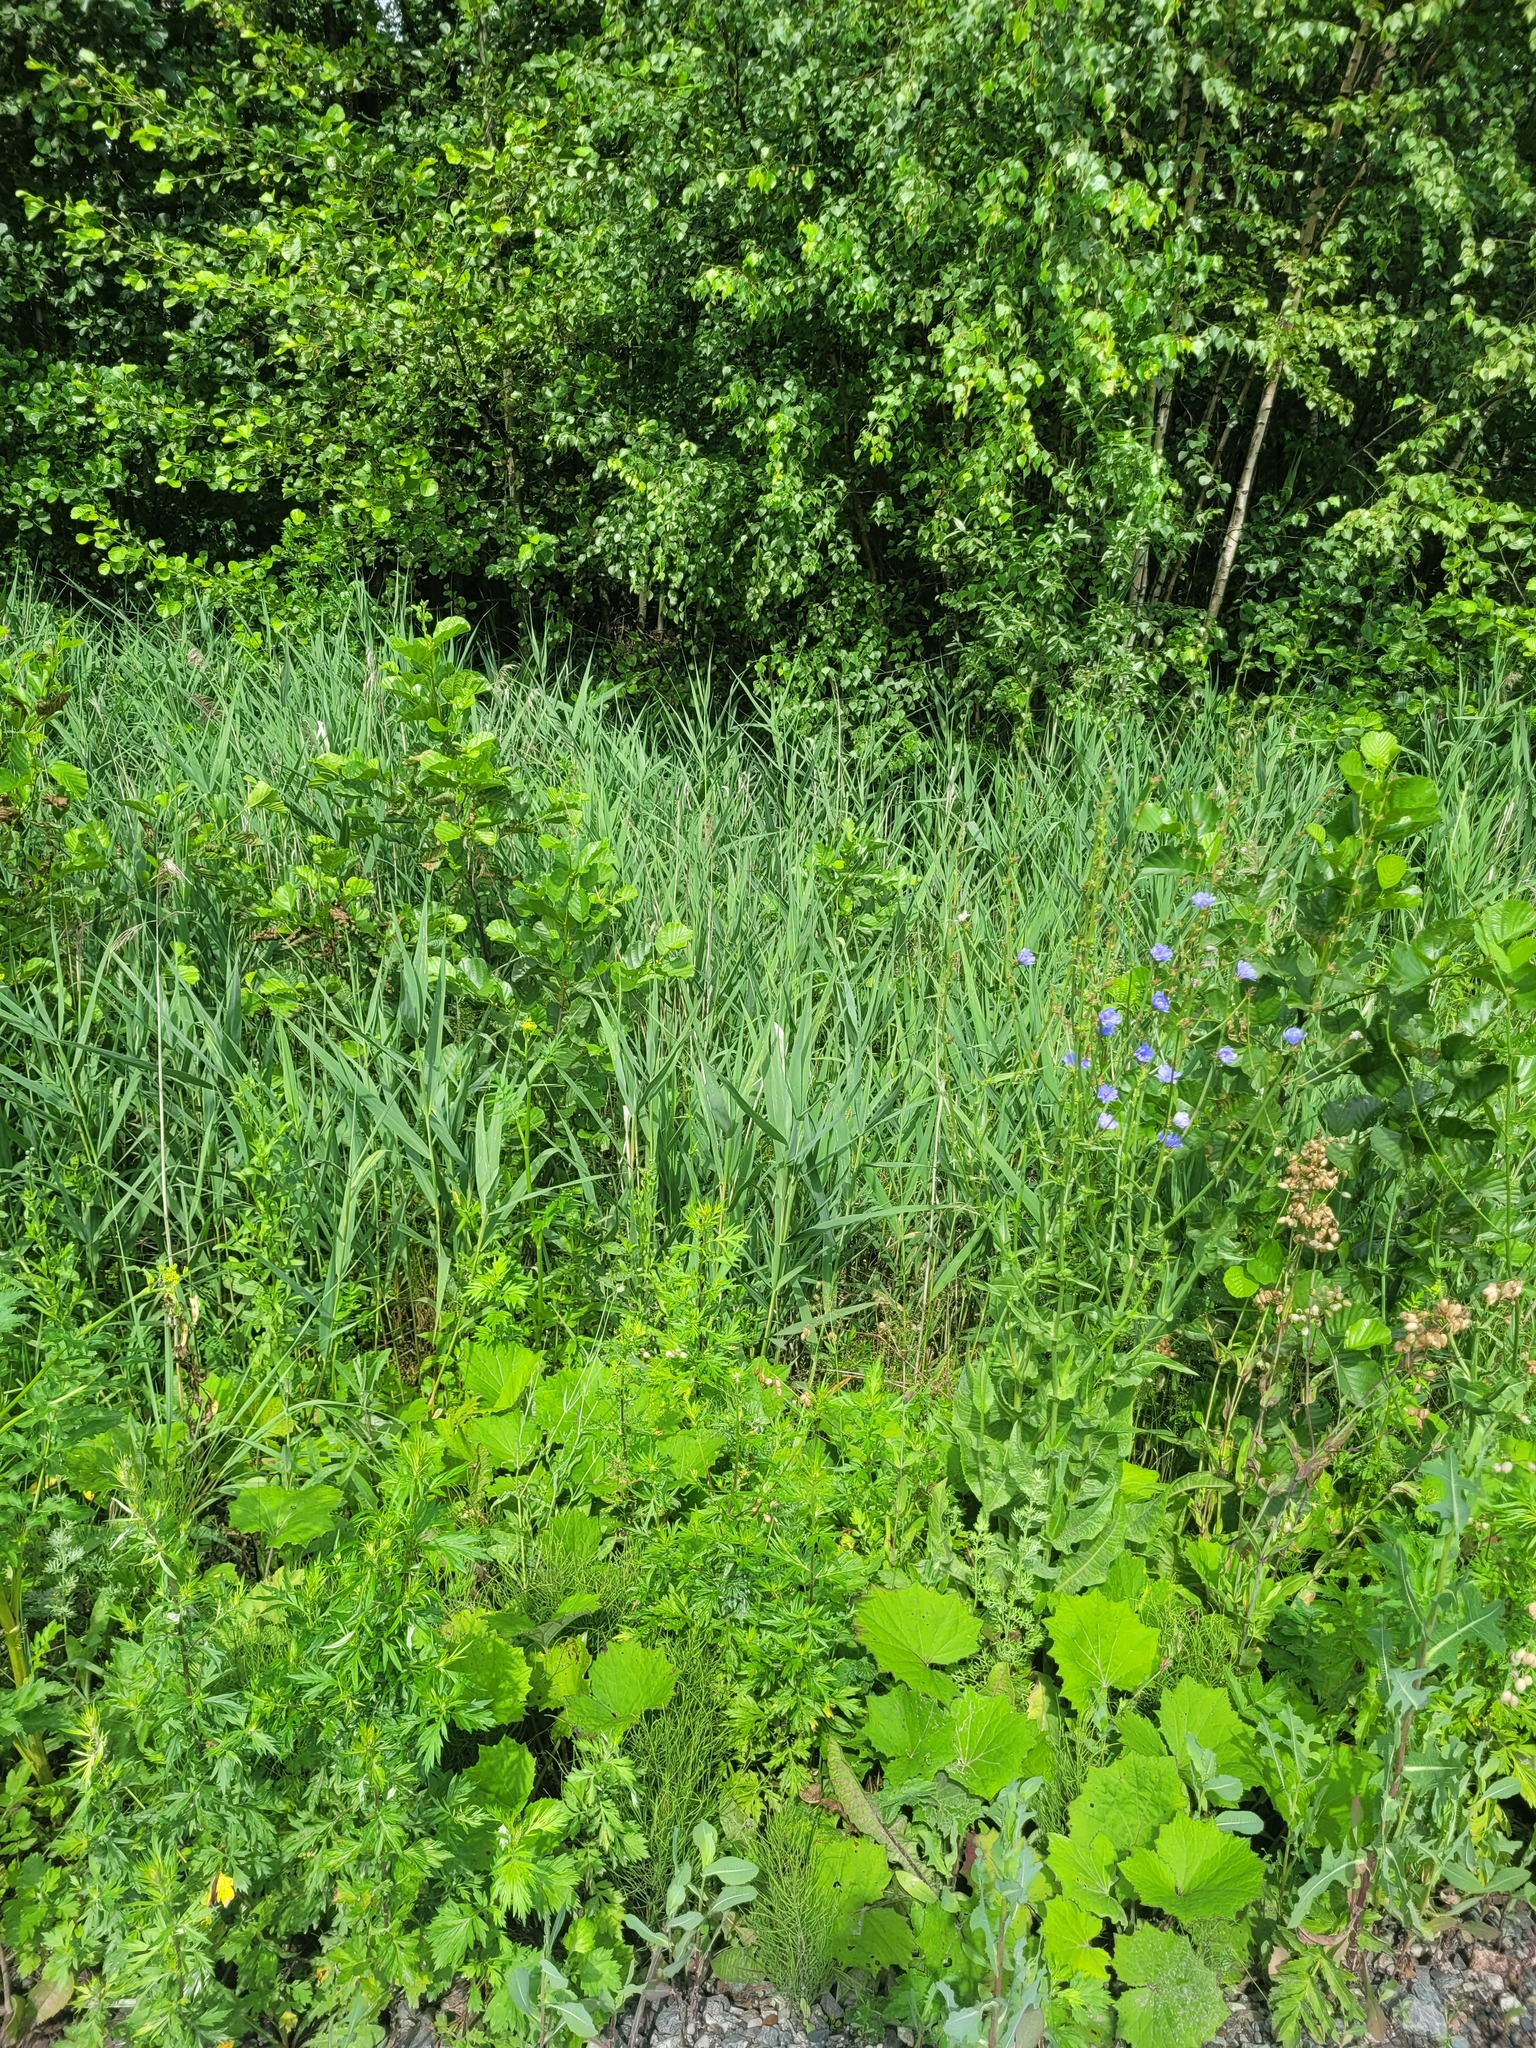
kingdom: Plantae
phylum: Tracheophyta
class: Liliopsida
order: Poales
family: Poaceae
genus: Phragmites
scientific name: Phragmites australis
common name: Common reed
